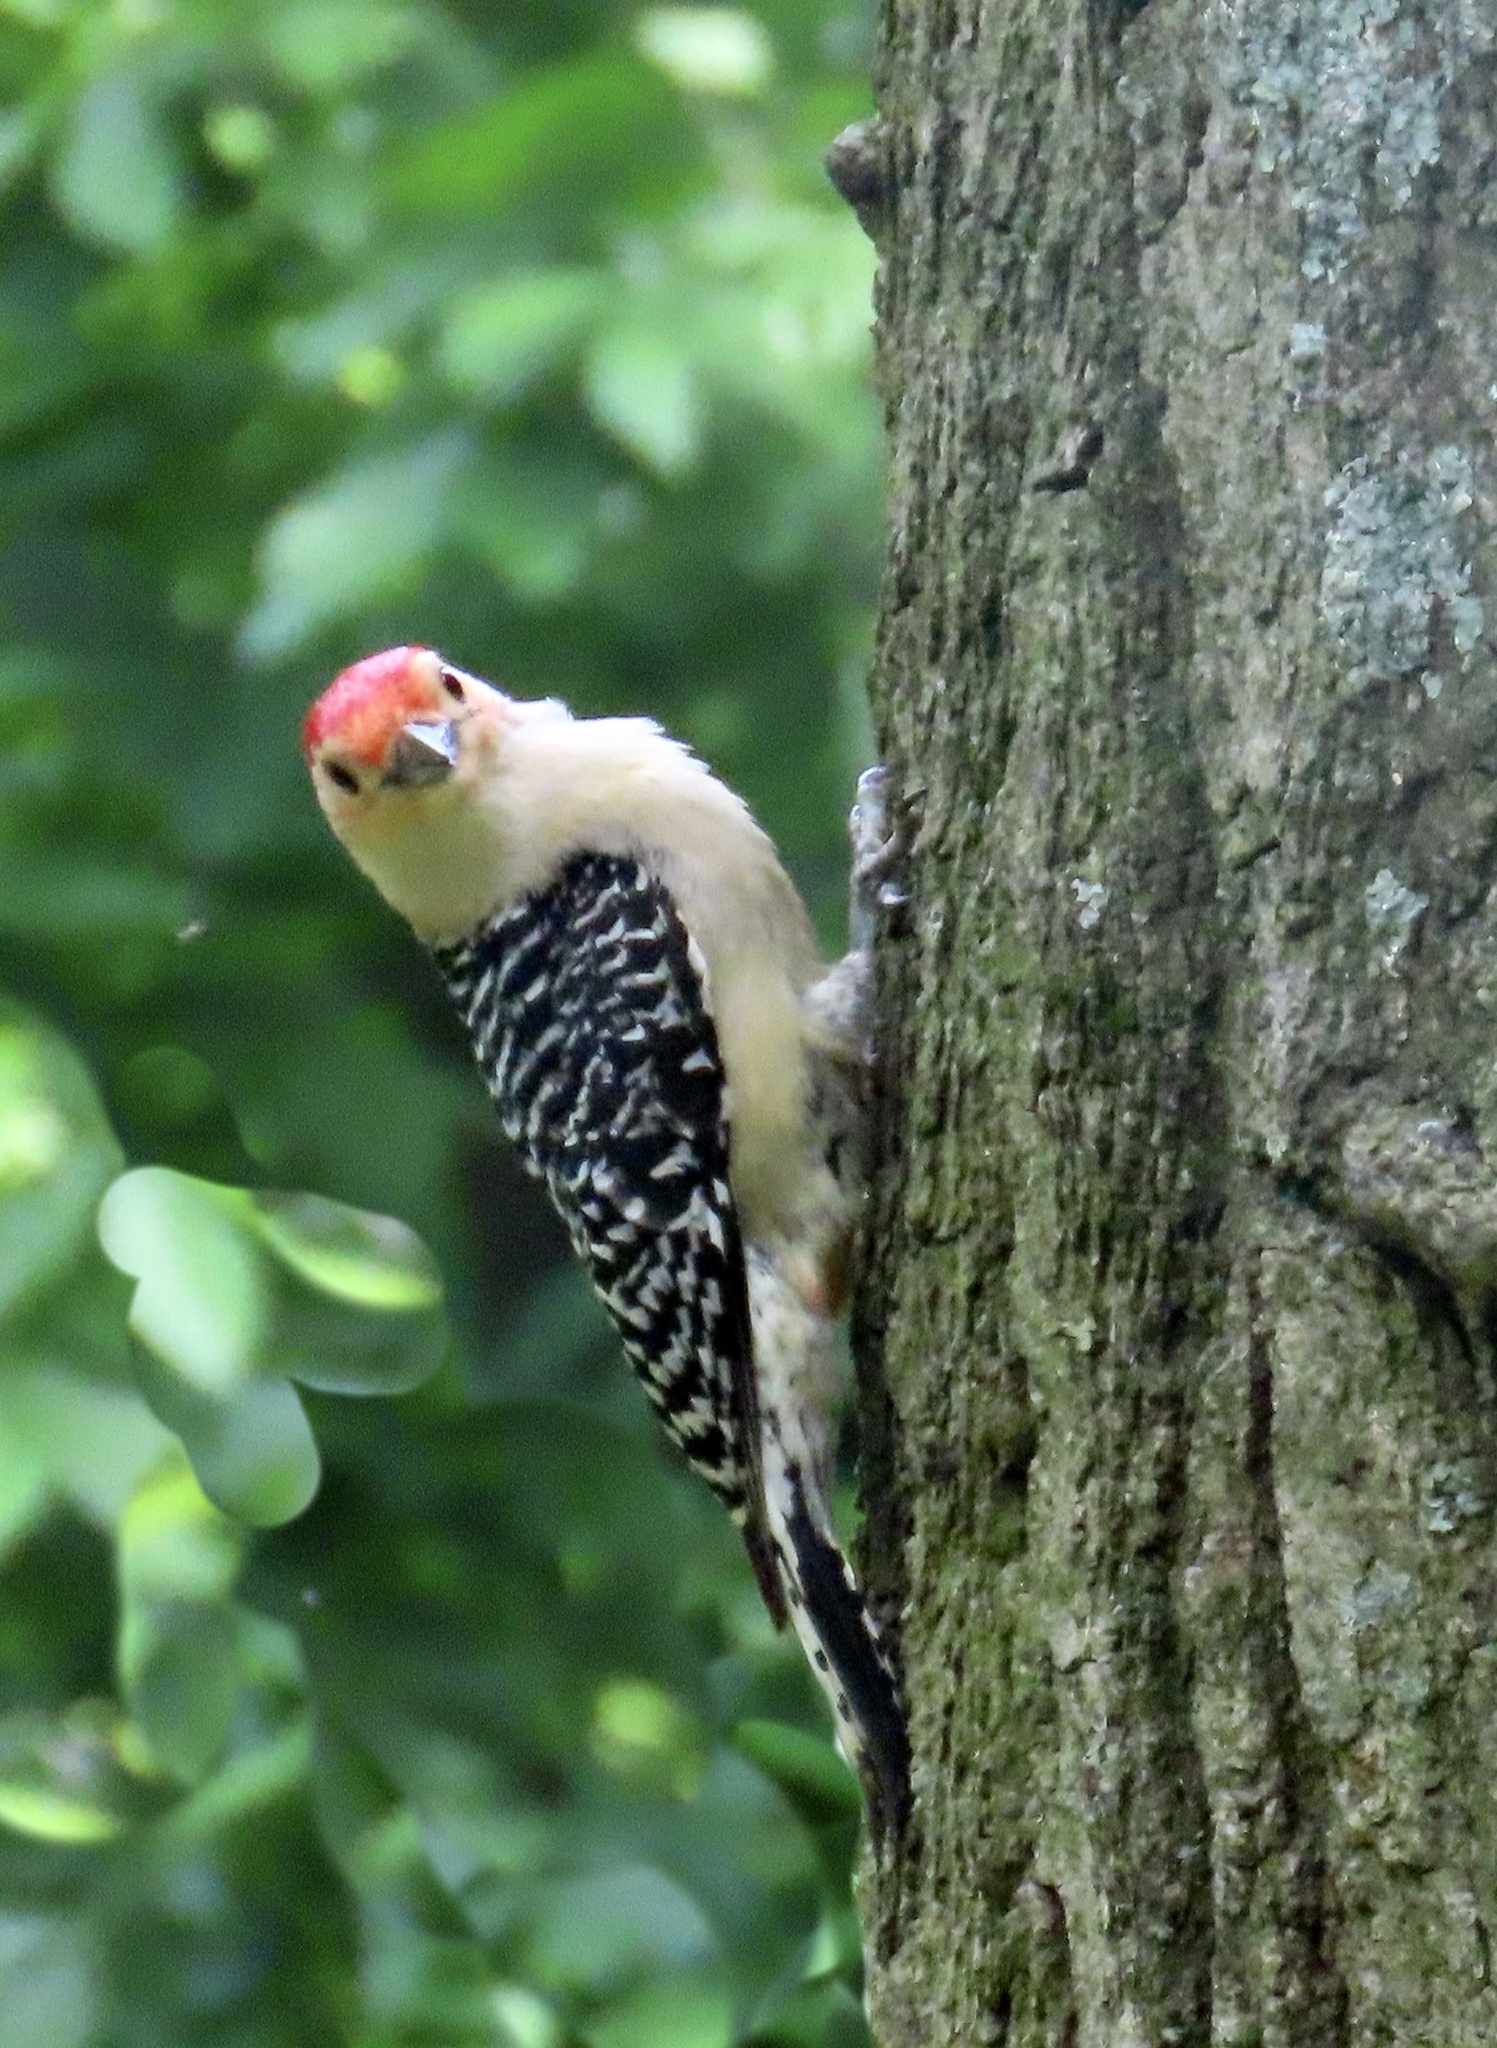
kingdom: Animalia
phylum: Chordata
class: Aves
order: Piciformes
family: Picidae
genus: Melanerpes
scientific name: Melanerpes carolinus
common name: Red-bellied woodpecker
